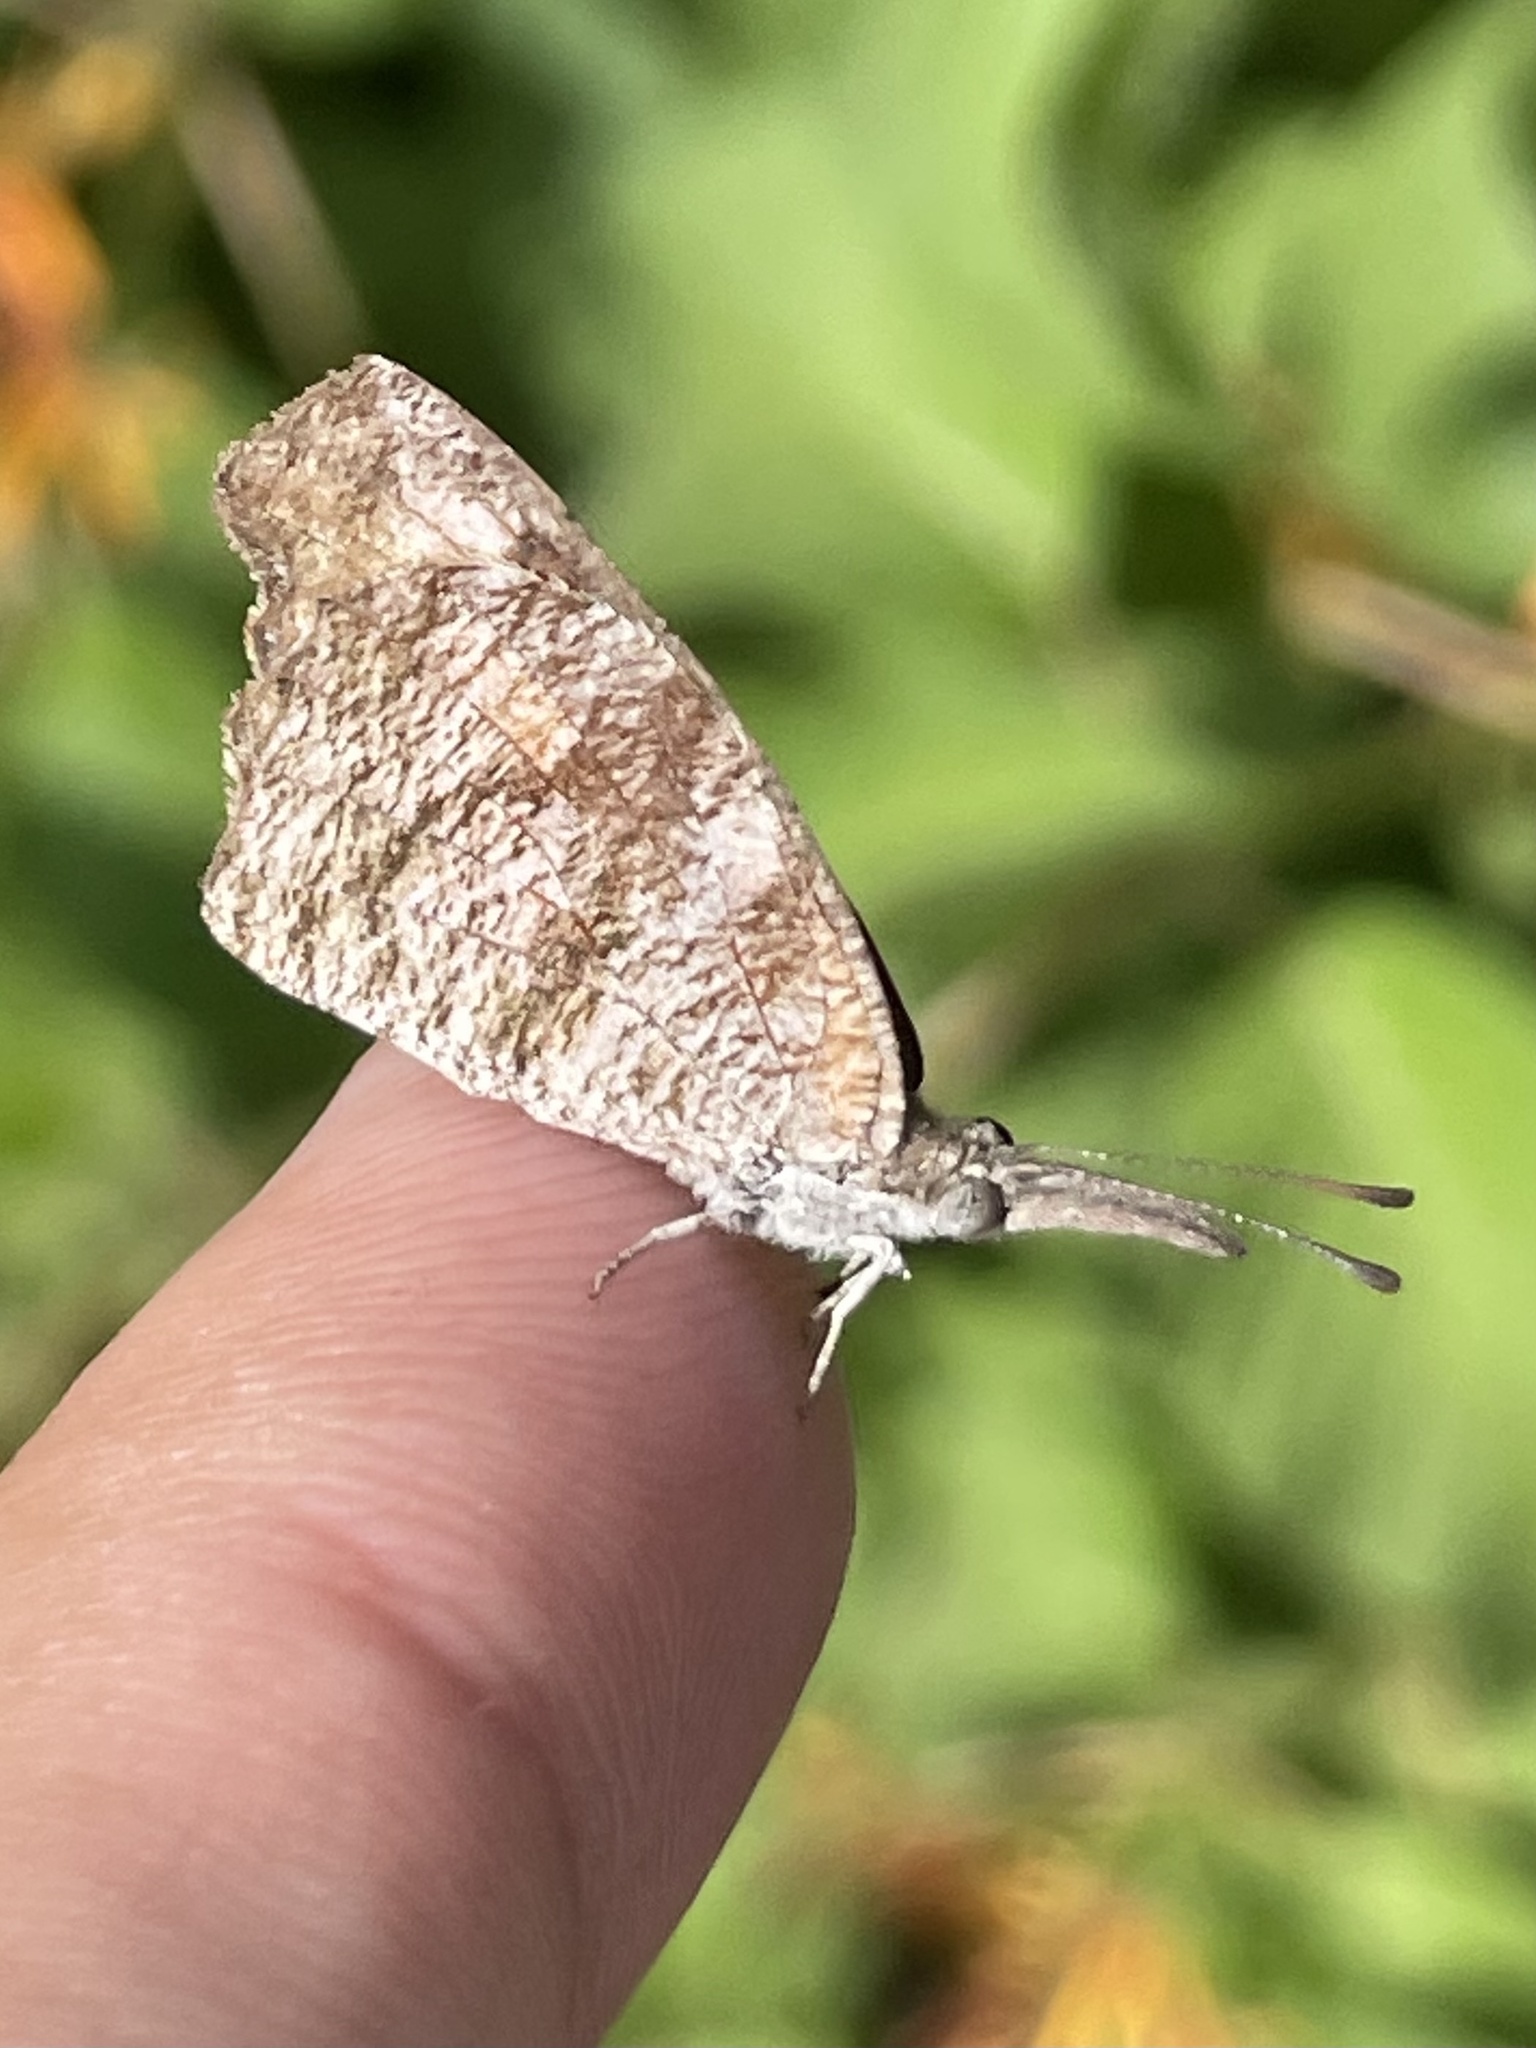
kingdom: Animalia
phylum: Arthropoda
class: Insecta
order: Lepidoptera
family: Nymphalidae
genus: Libytheana
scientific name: Libytheana carinenta
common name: American snout
